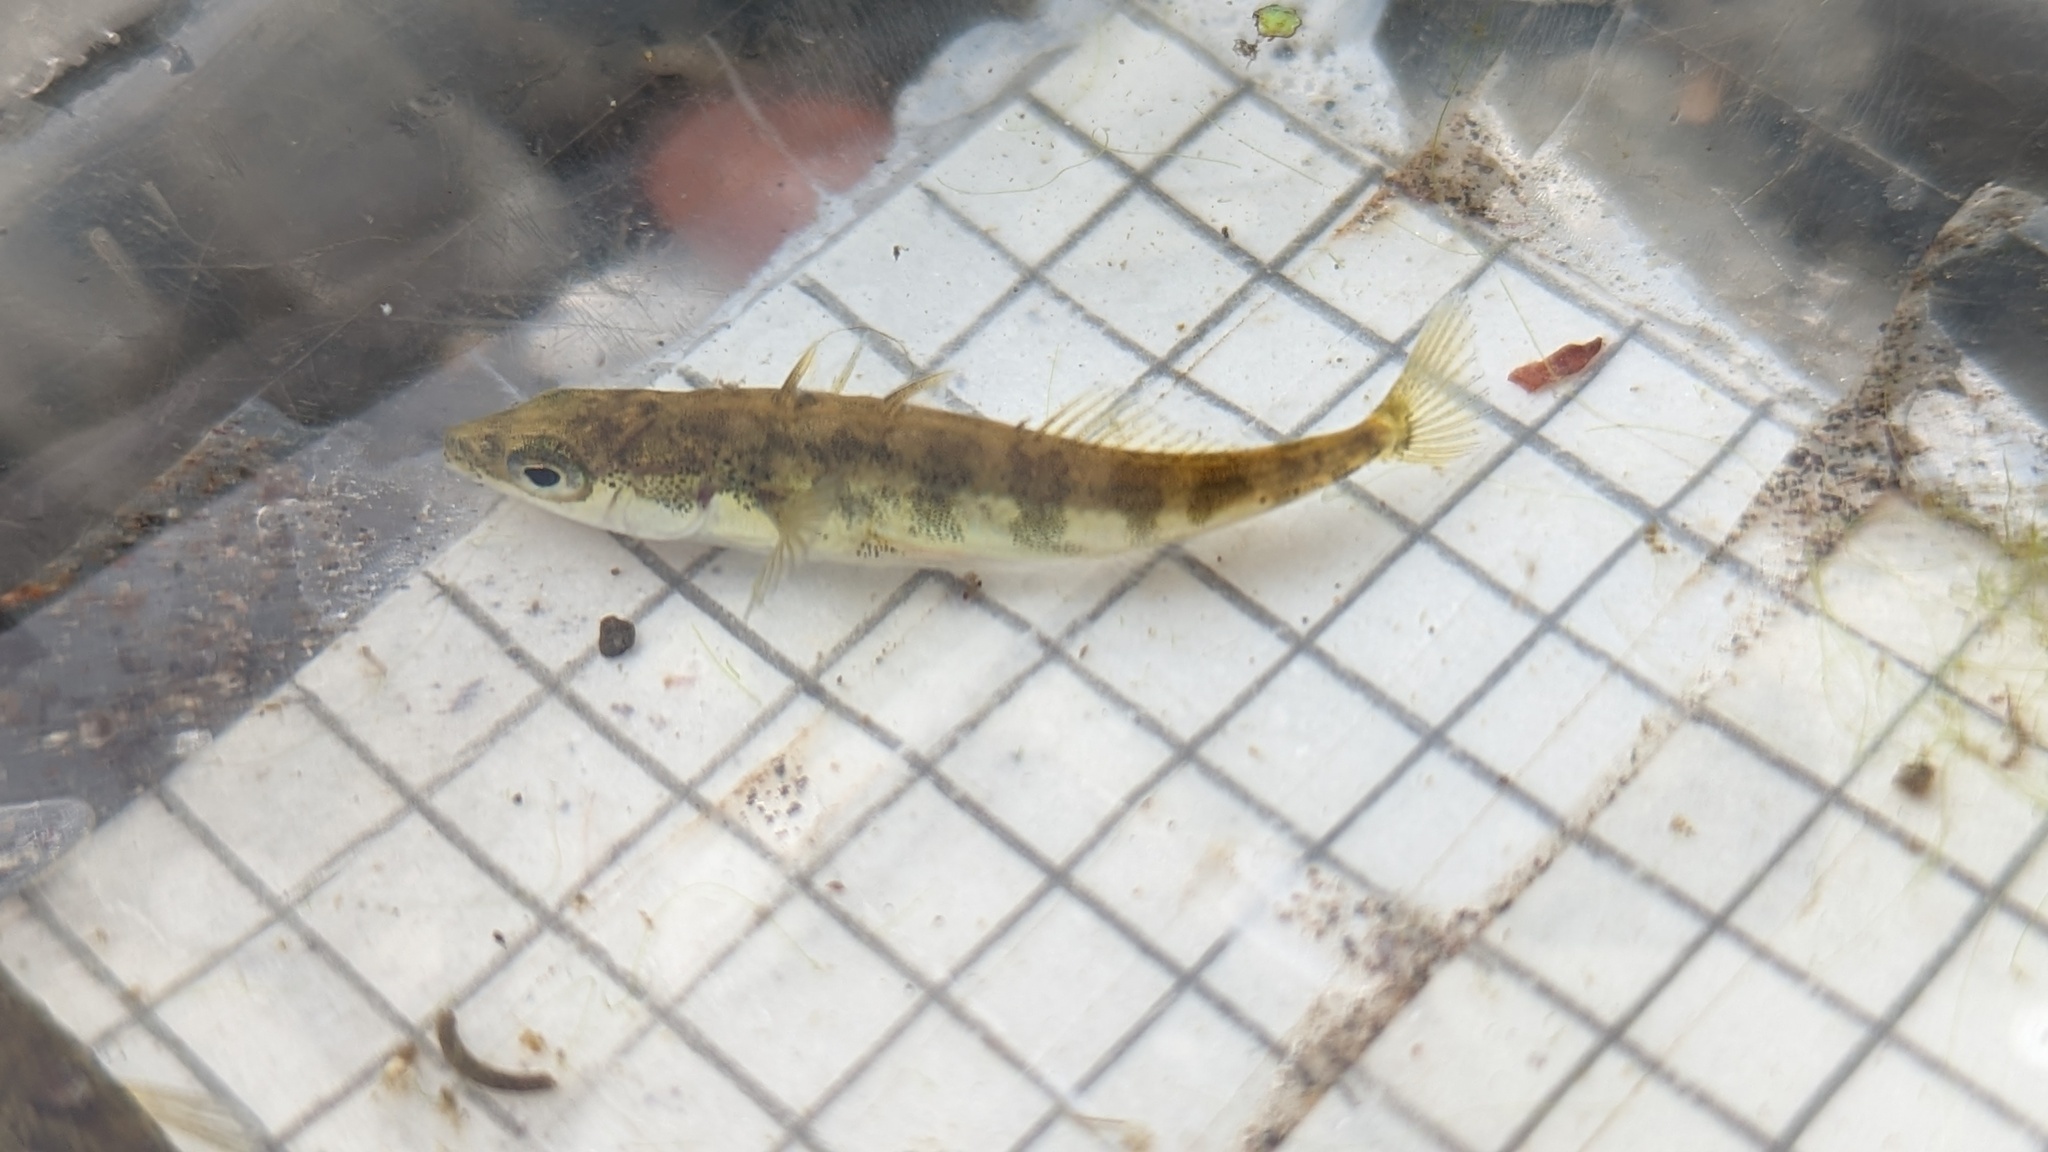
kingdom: Animalia
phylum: Chordata
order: Gasterosteiformes
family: Gasterosteidae
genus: Gasterosteus
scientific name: Gasterosteus aculeatus
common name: Three-spined stickleback
